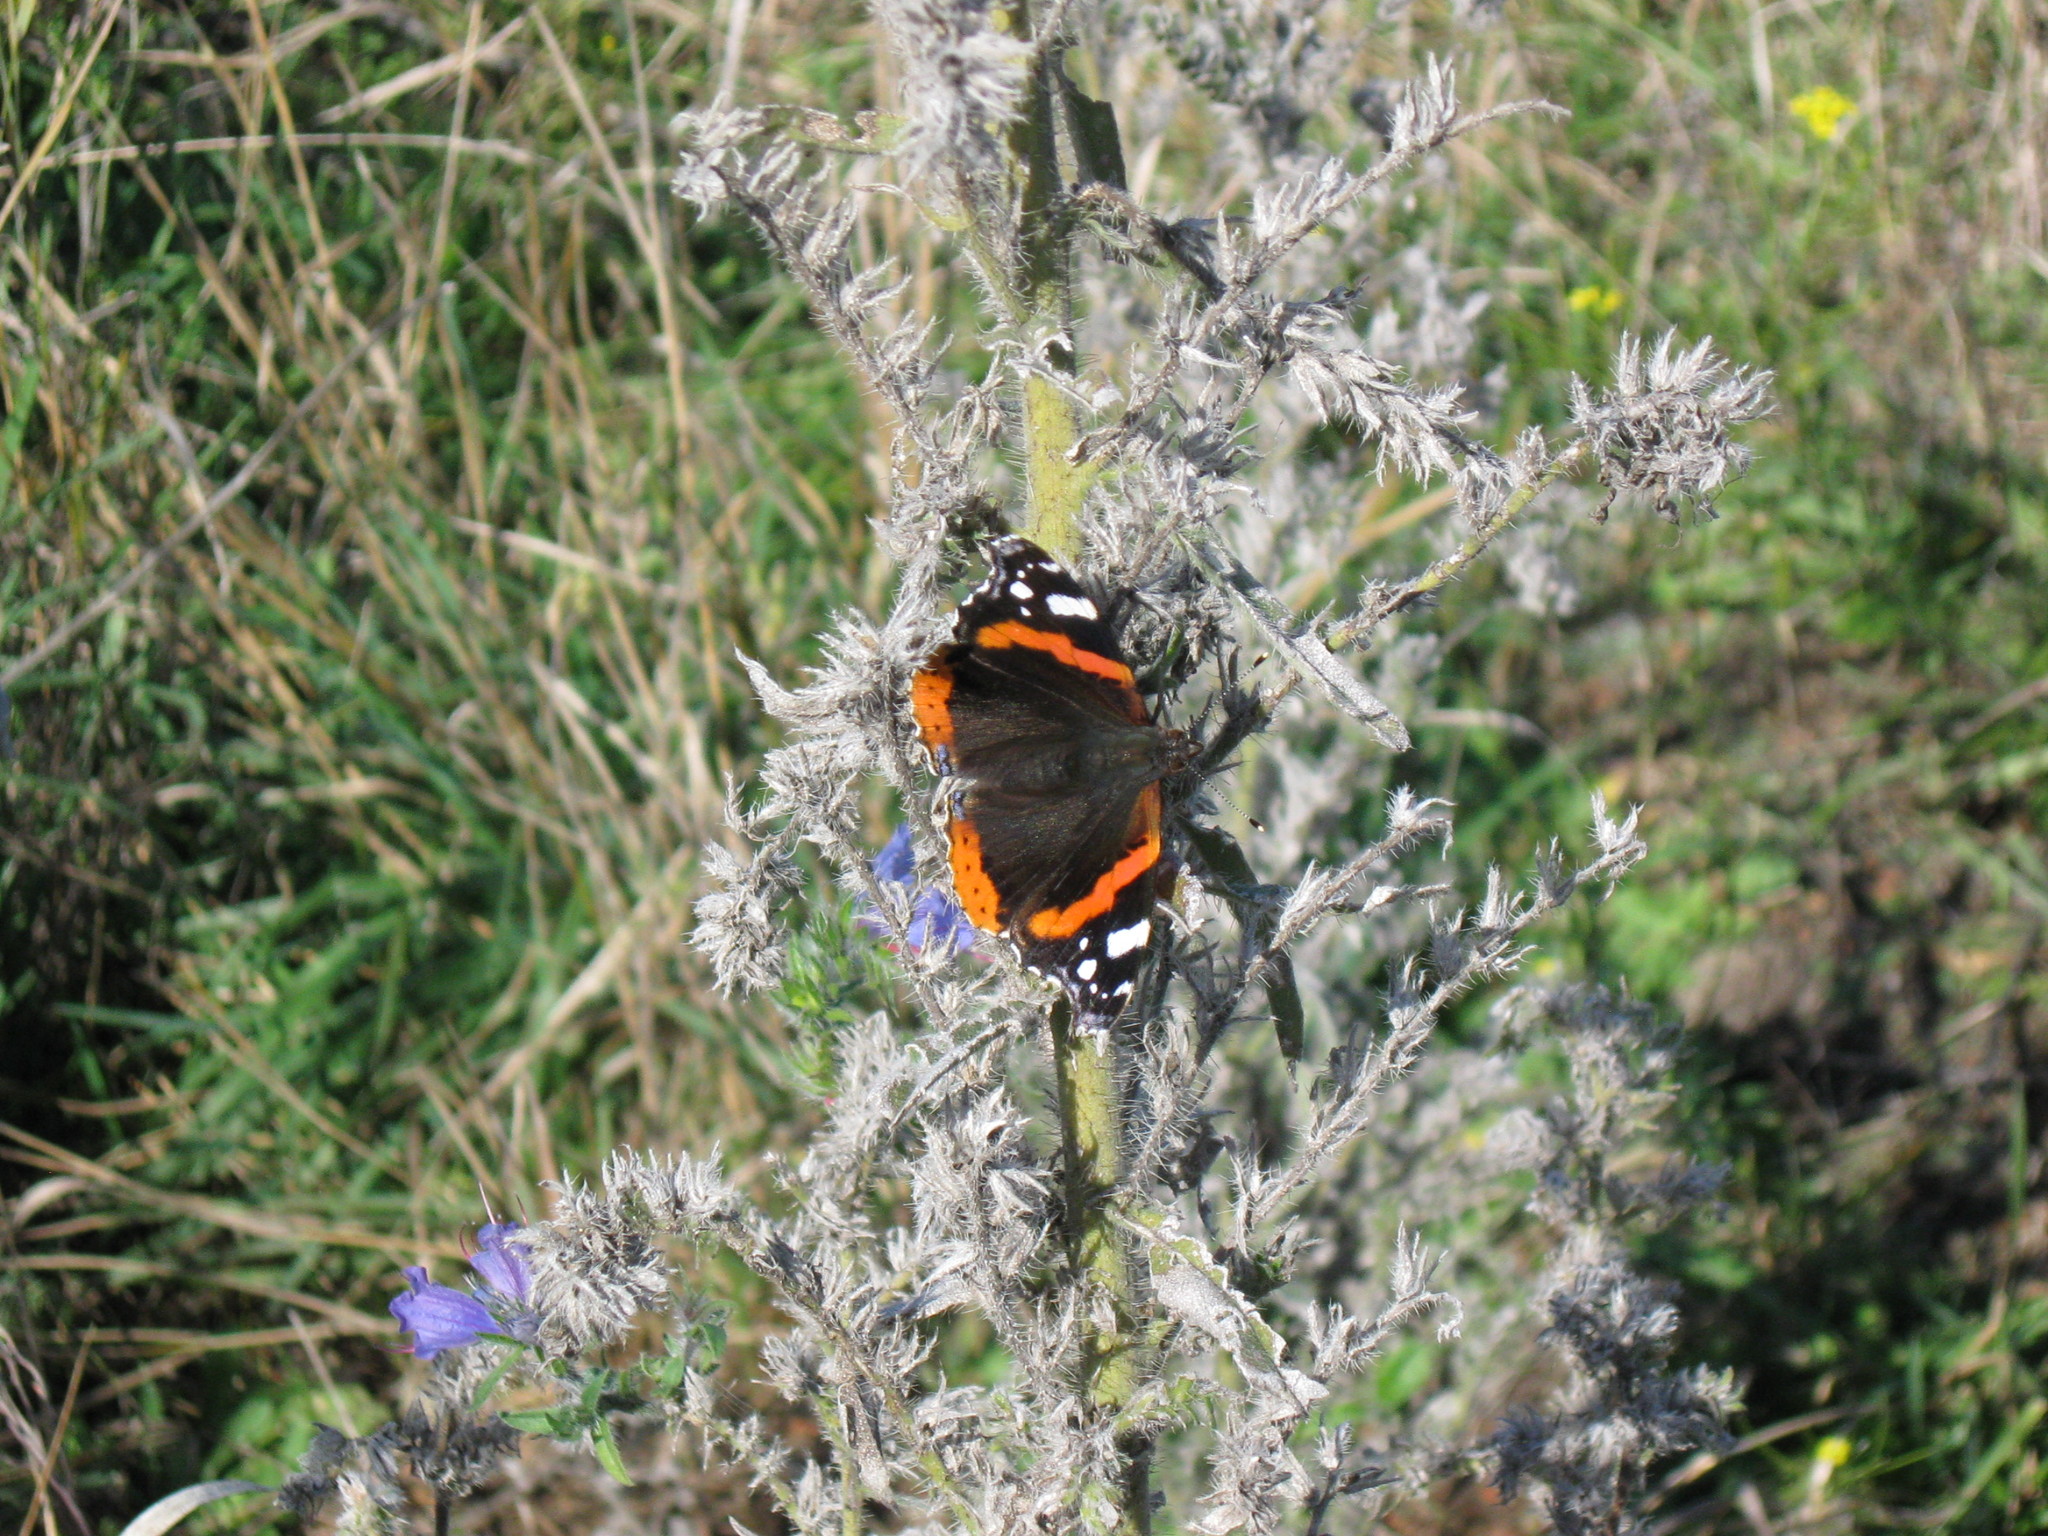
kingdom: Animalia
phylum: Arthropoda
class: Insecta
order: Lepidoptera
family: Nymphalidae
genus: Vanessa
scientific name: Vanessa atalanta
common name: Red admiral
